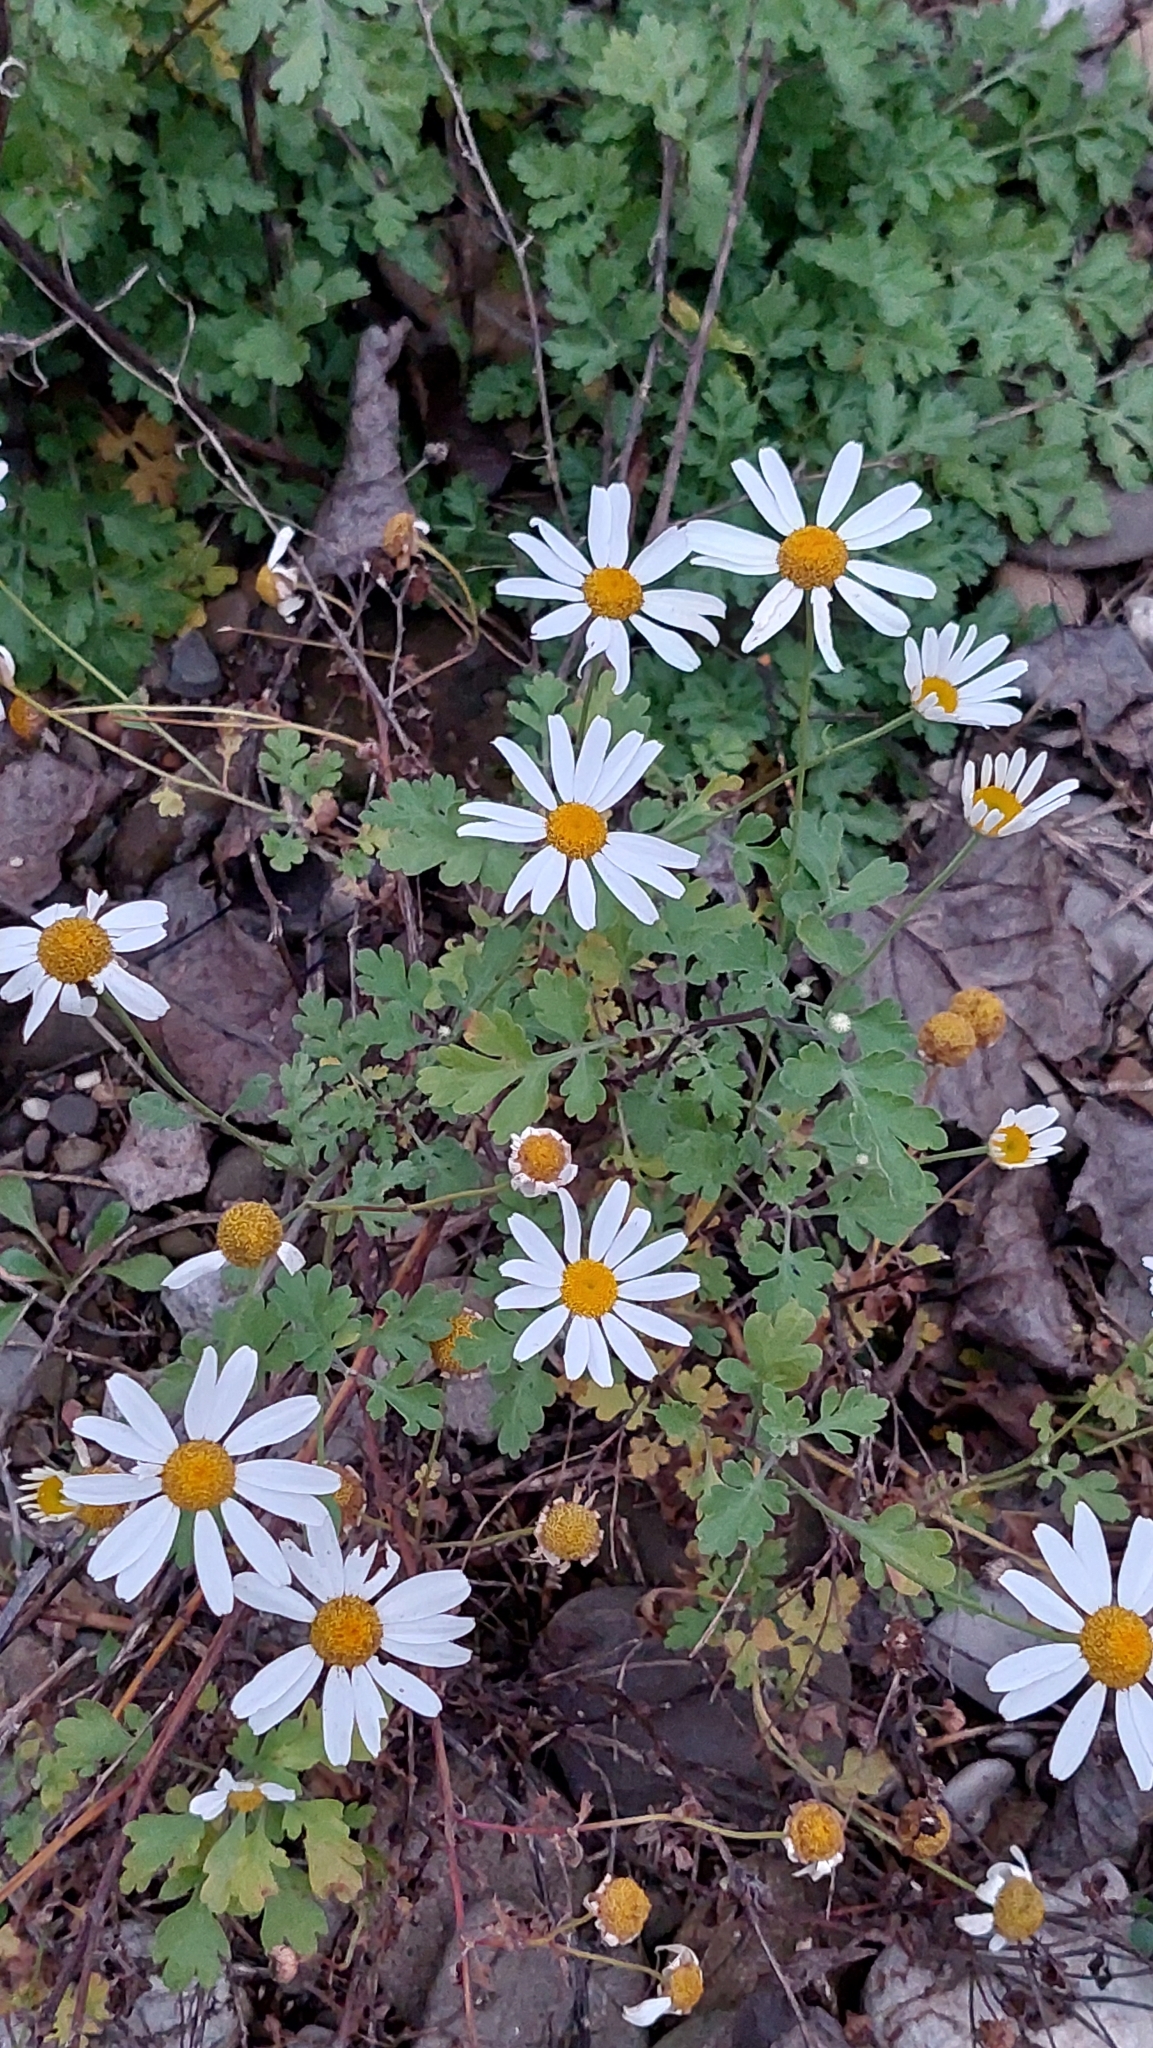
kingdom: Plantae
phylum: Tracheophyta
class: Magnoliopsida
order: Asterales
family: Asteraceae
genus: Tanacetum
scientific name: Tanacetum partheniifolium
